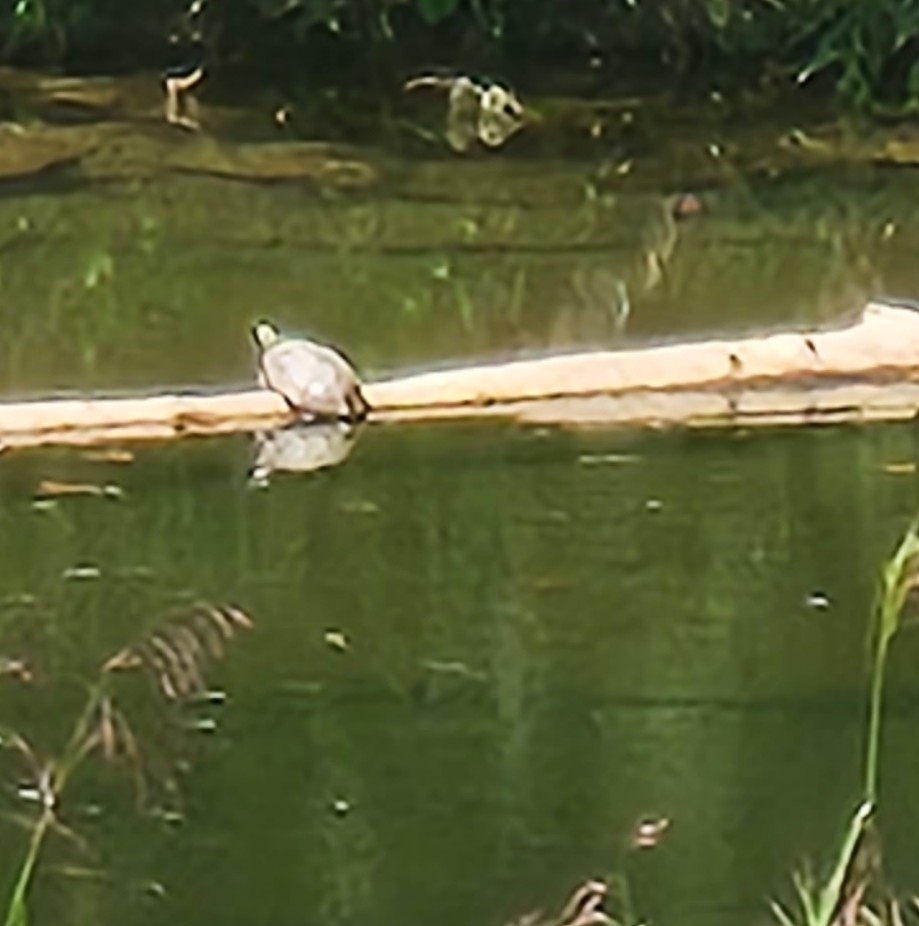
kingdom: Animalia
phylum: Chordata
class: Testudines
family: Emydidae
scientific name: Emydidae
